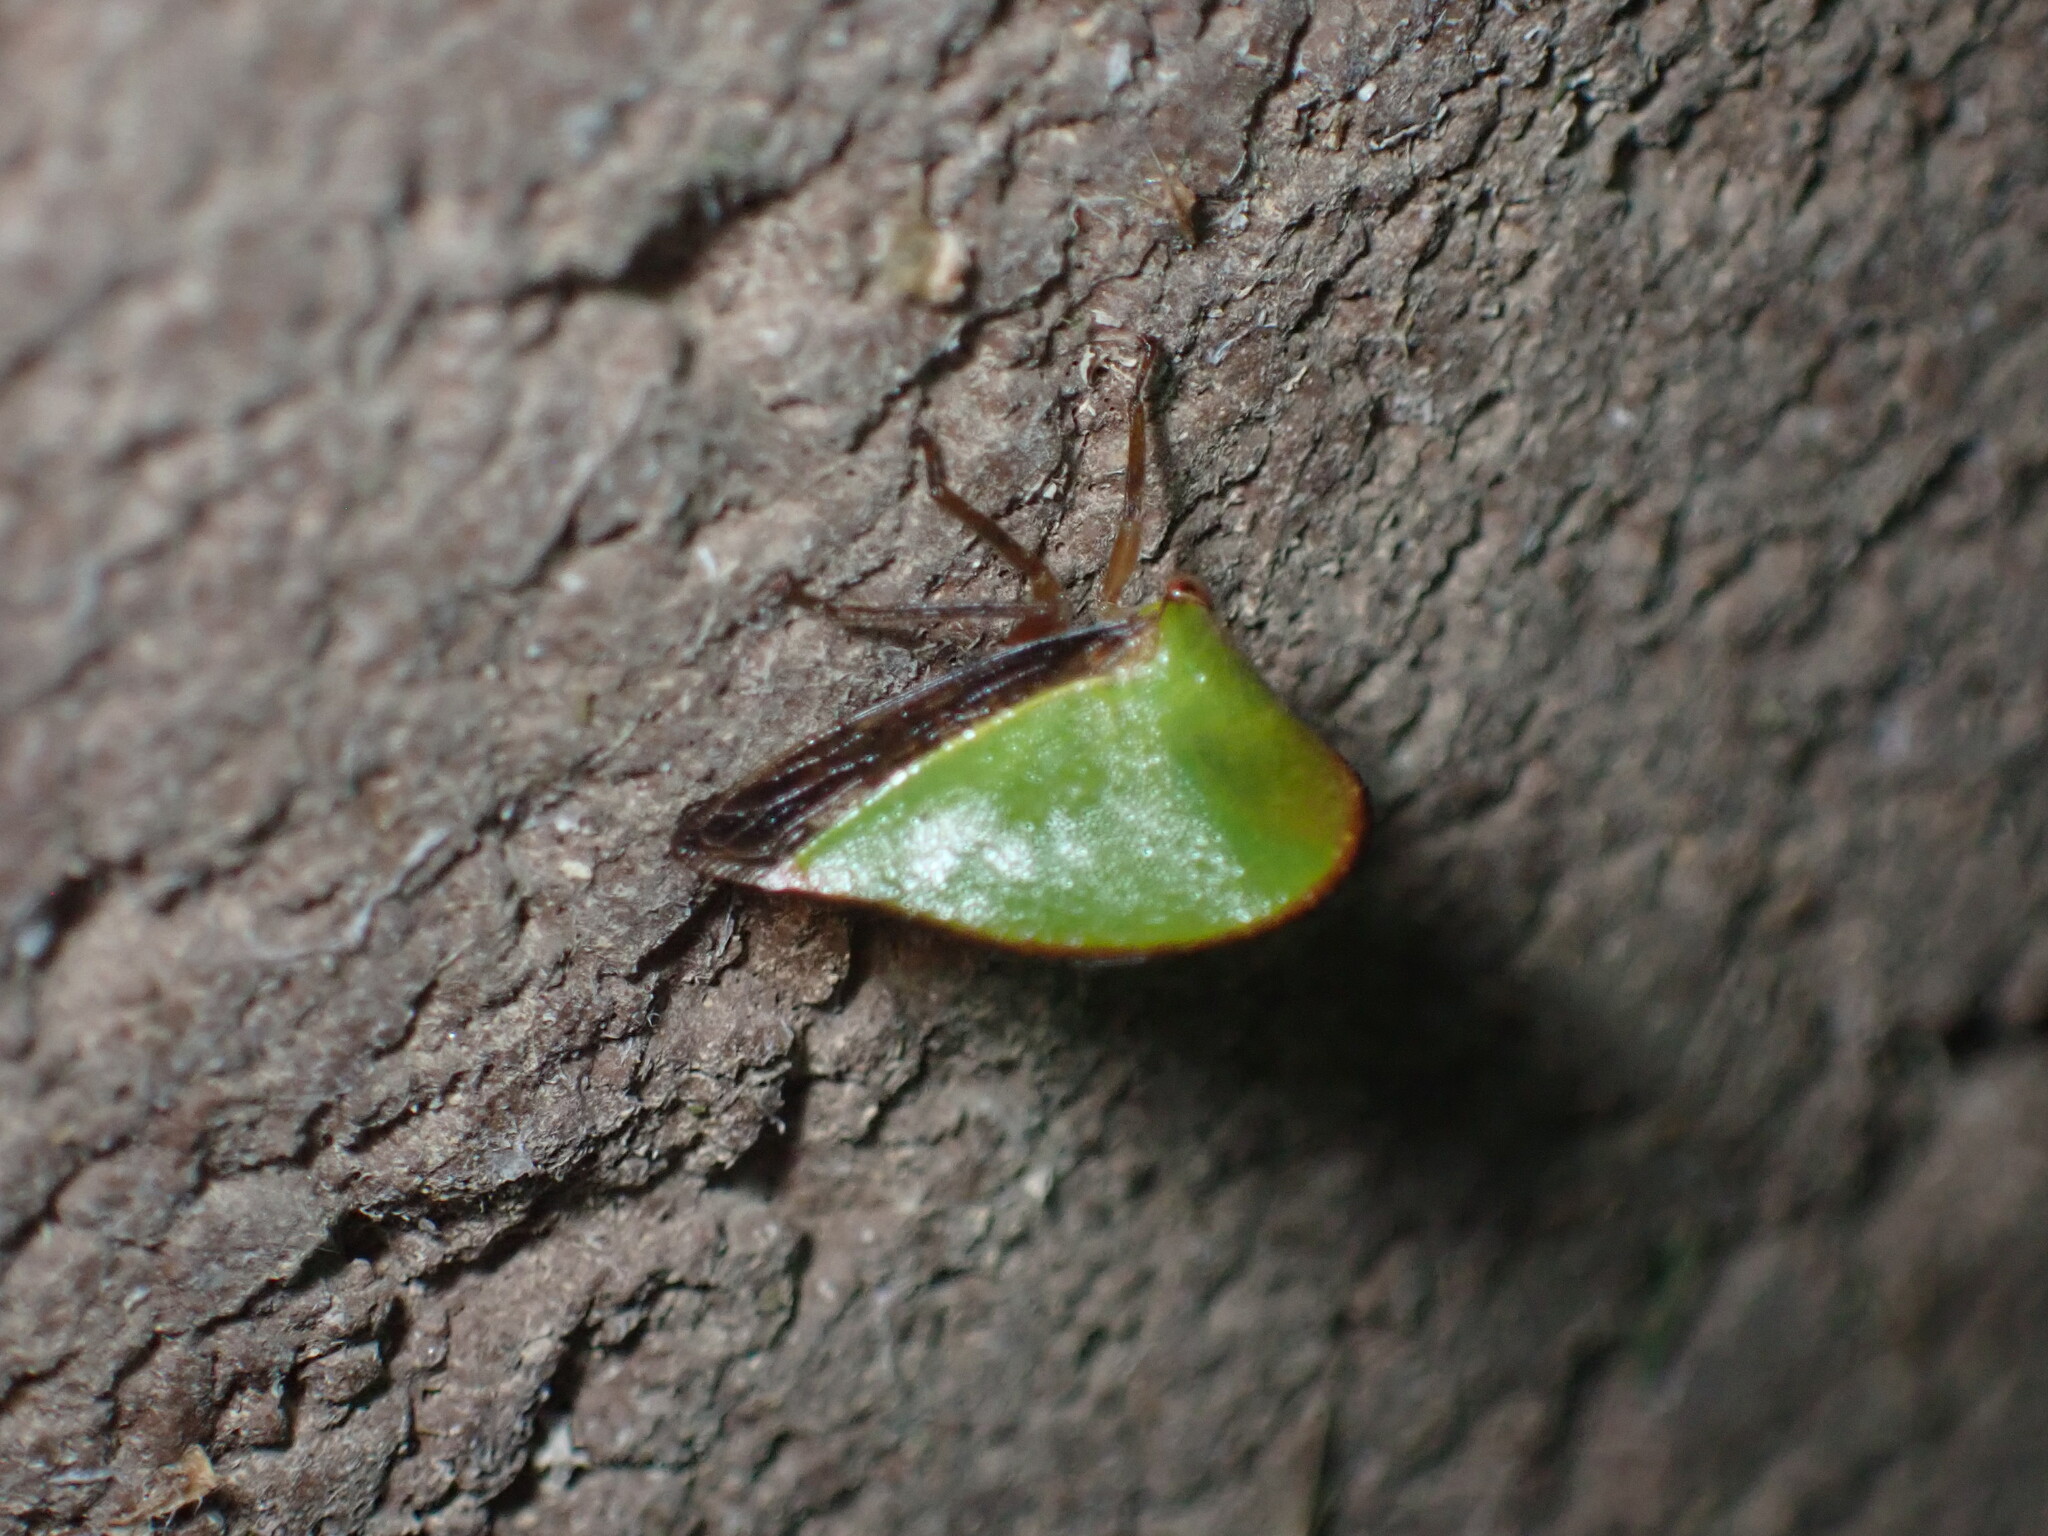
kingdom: Animalia
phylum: Arthropoda
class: Insecta
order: Hemiptera
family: Membracidae
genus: Archasia
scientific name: Archasia belfragei
